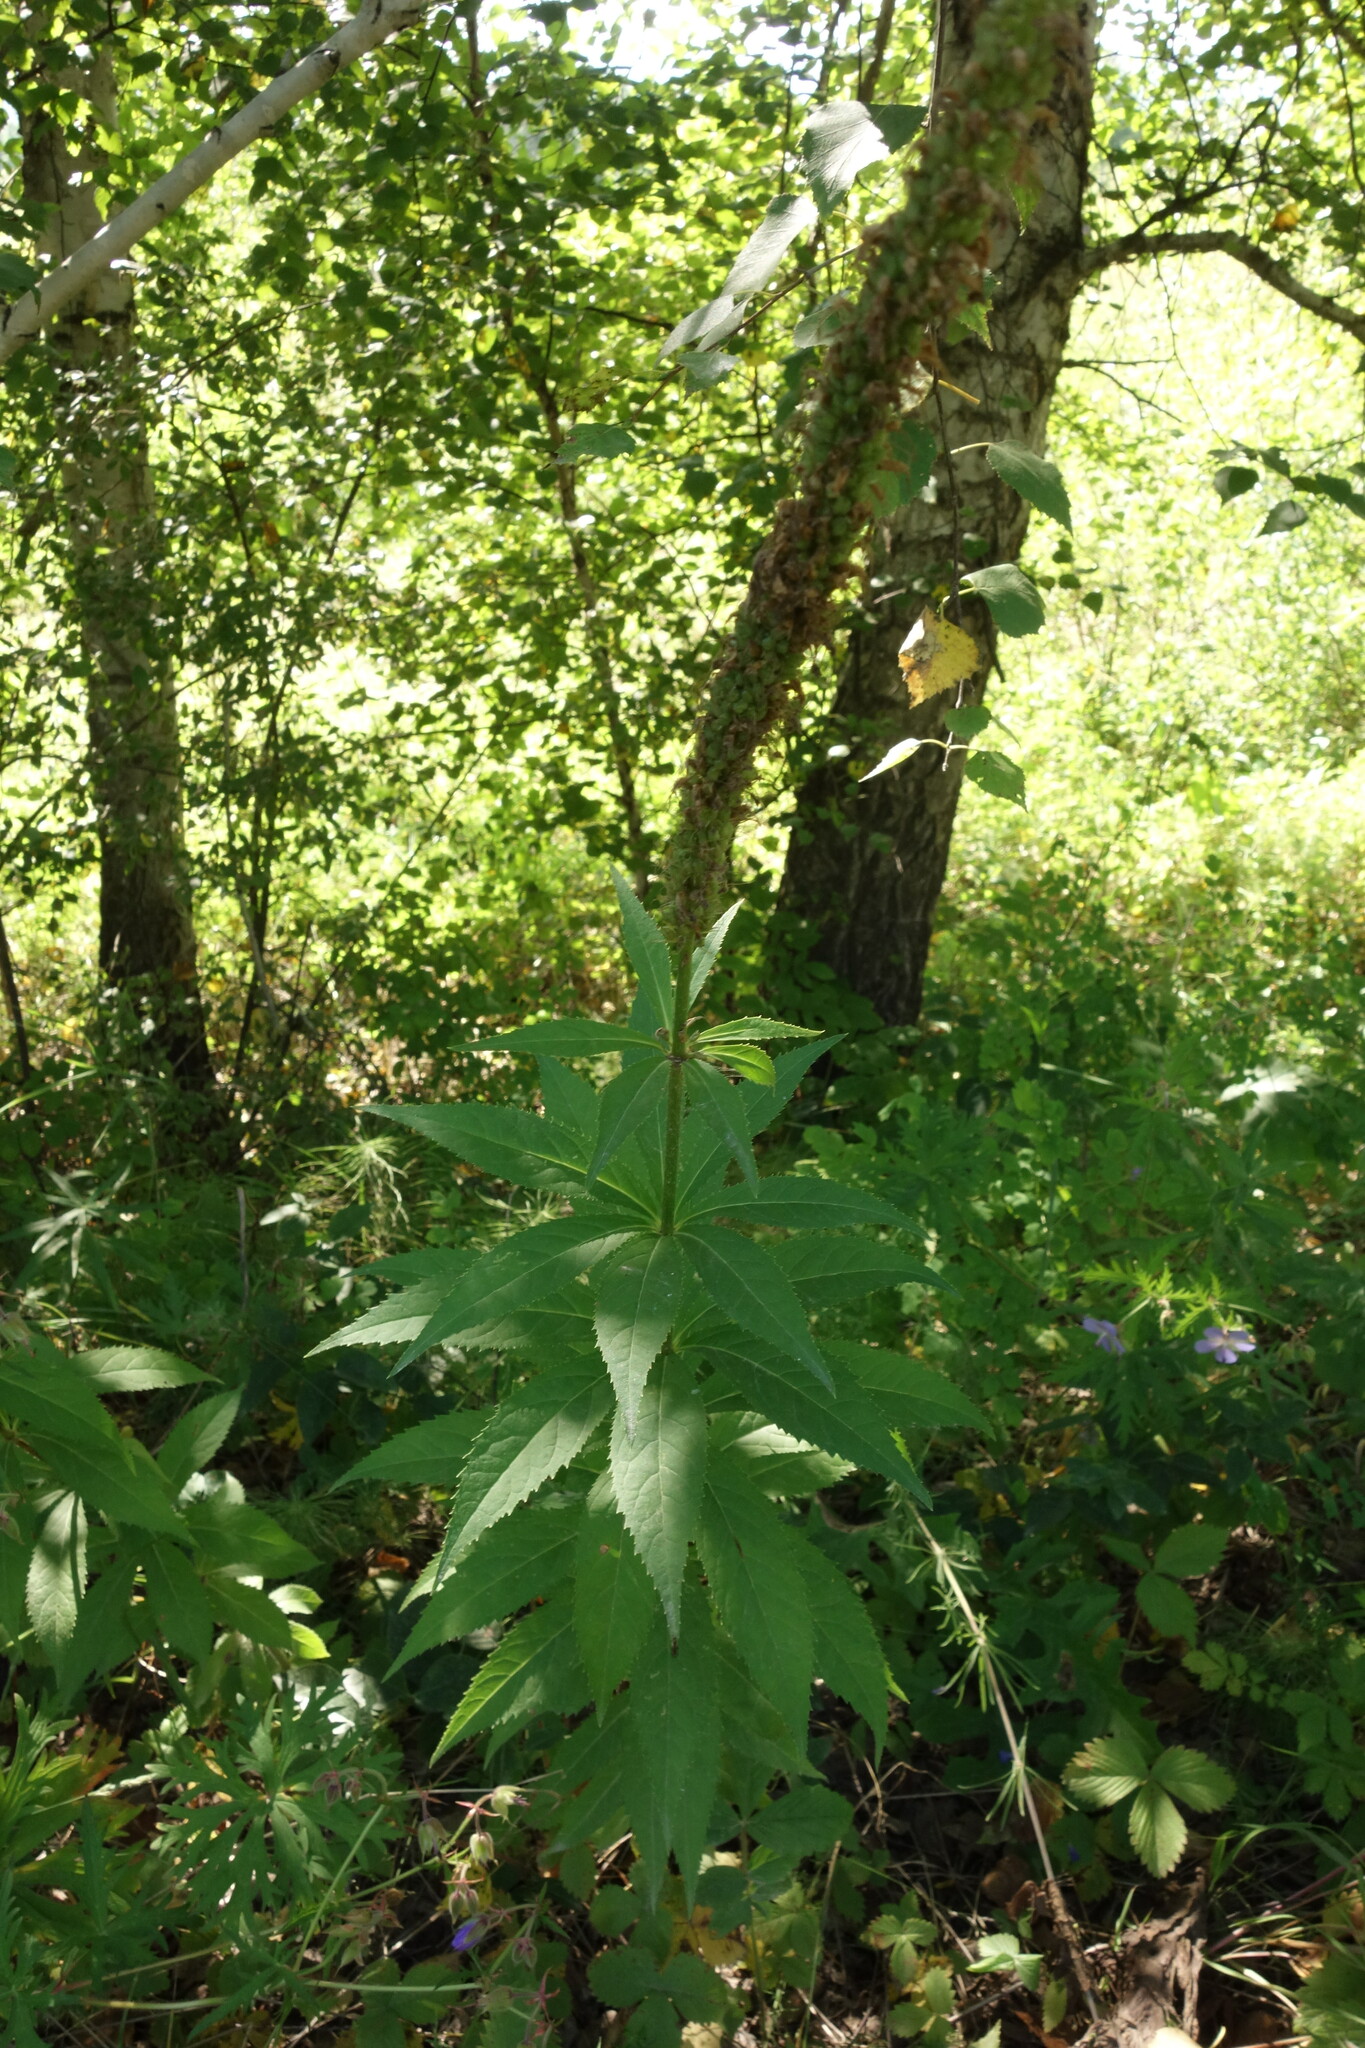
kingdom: Plantae
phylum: Tracheophyta
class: Magnoliopsida
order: Lamiales
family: Plantaginaceae
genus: Veronicastrum
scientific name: Veronicastrum sibiricum
